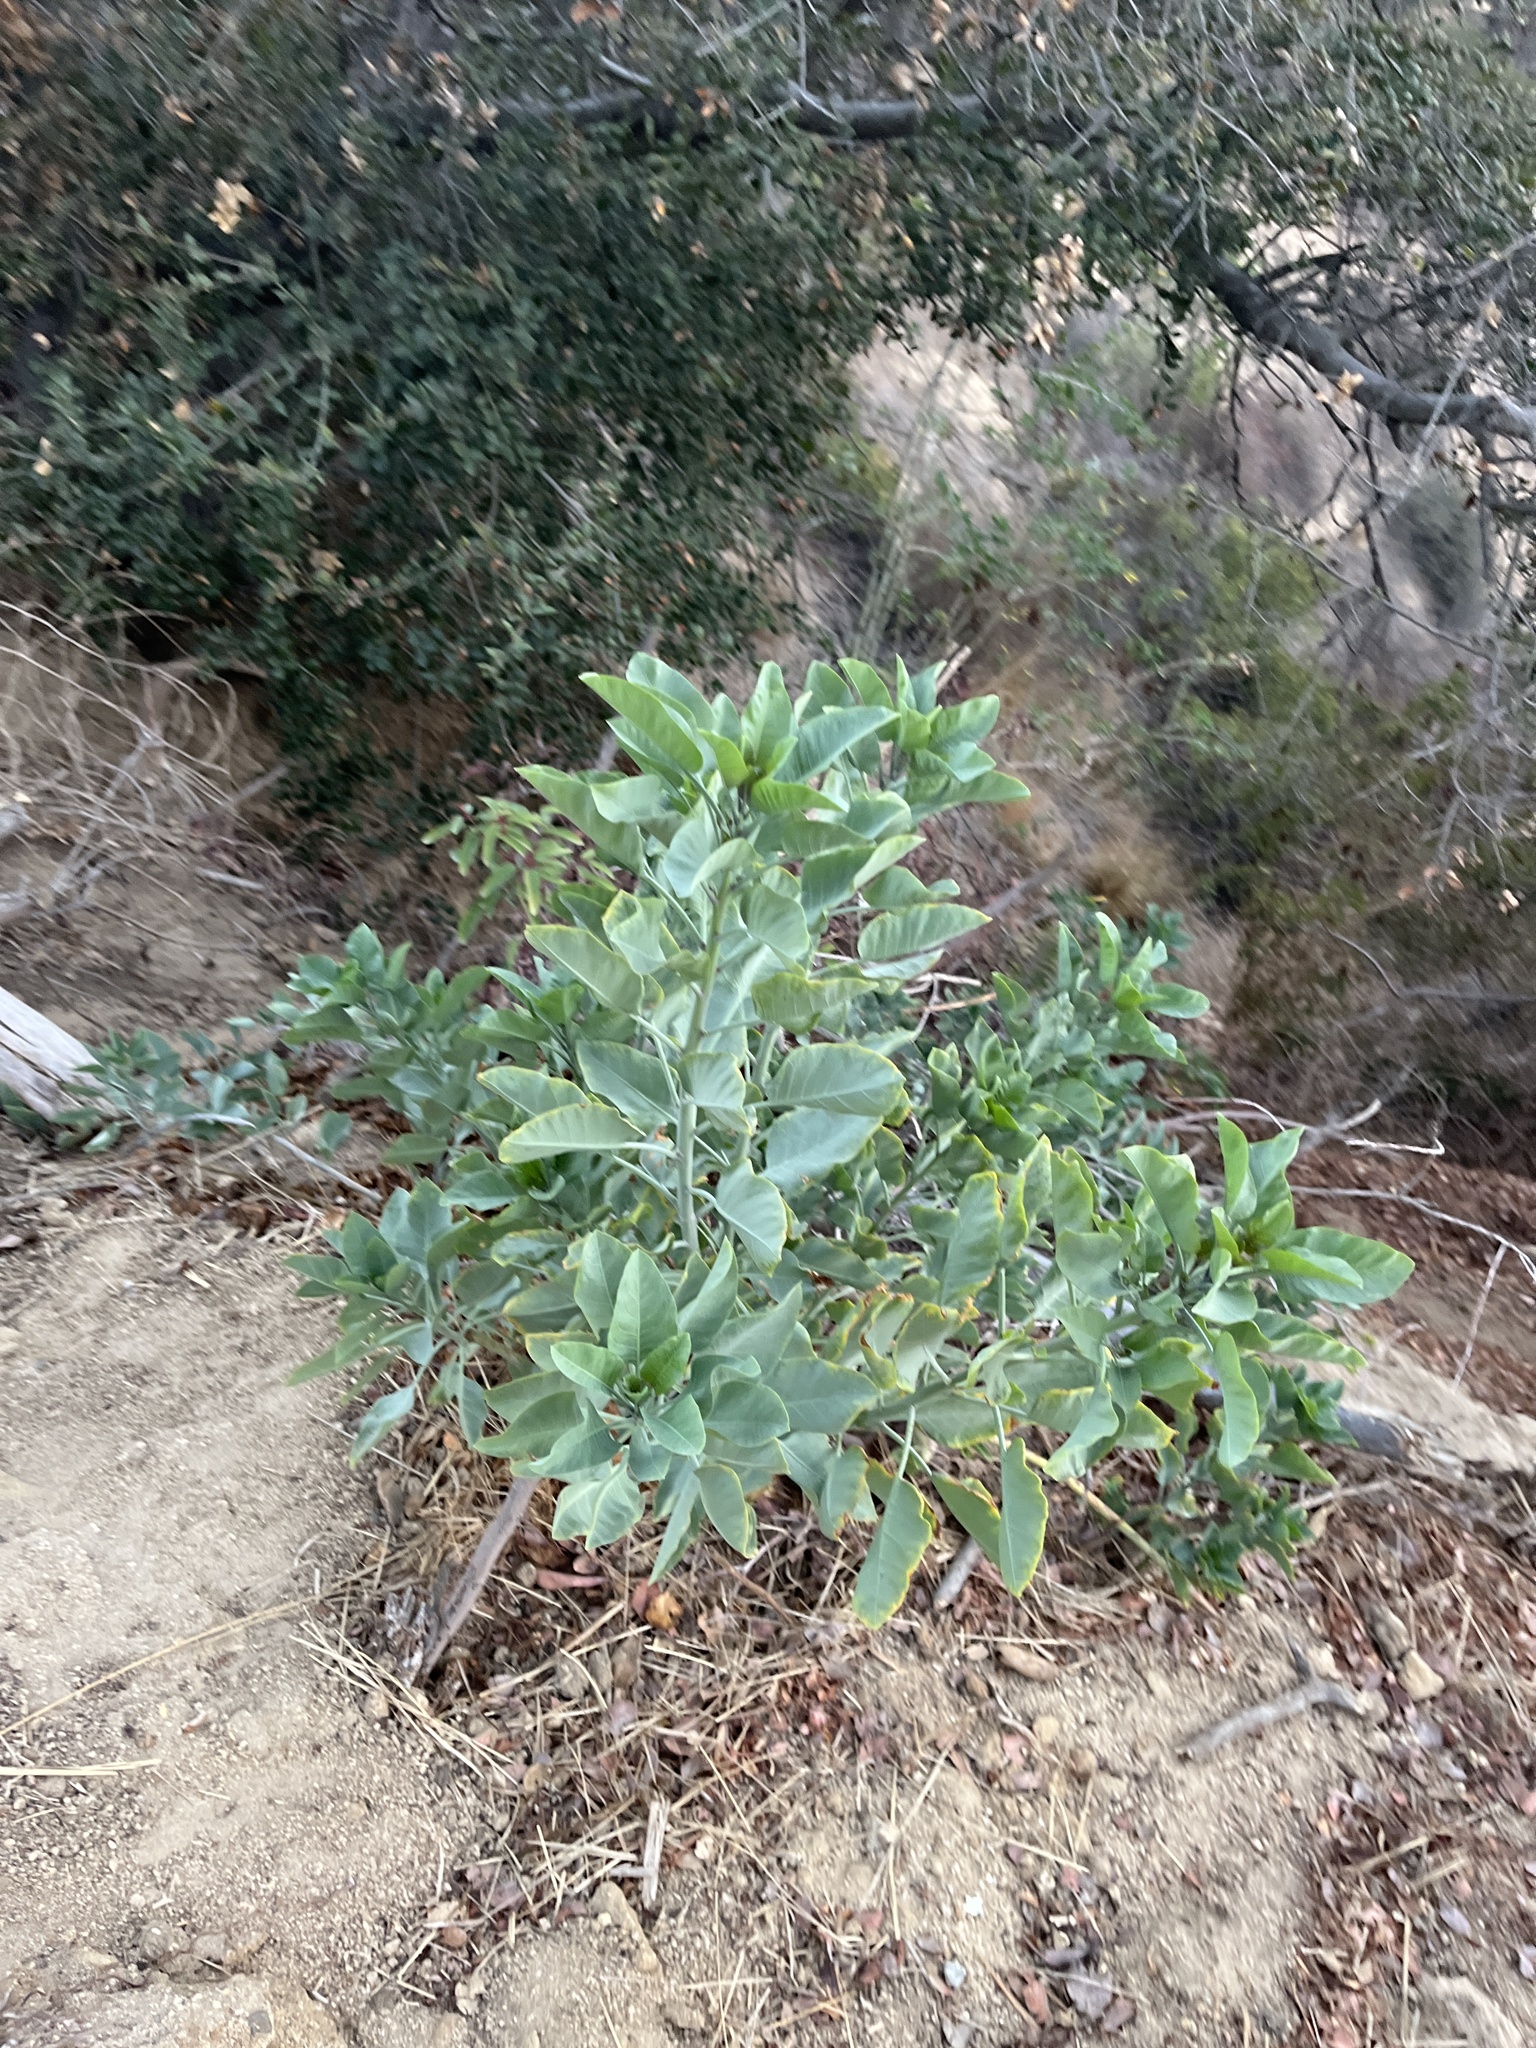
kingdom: Plantae
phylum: Tracheophyta
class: Magnoliopsida
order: Solanales
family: Solanaceae
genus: Nicotiana
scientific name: Nicotiana glauca
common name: Tree tobacco
